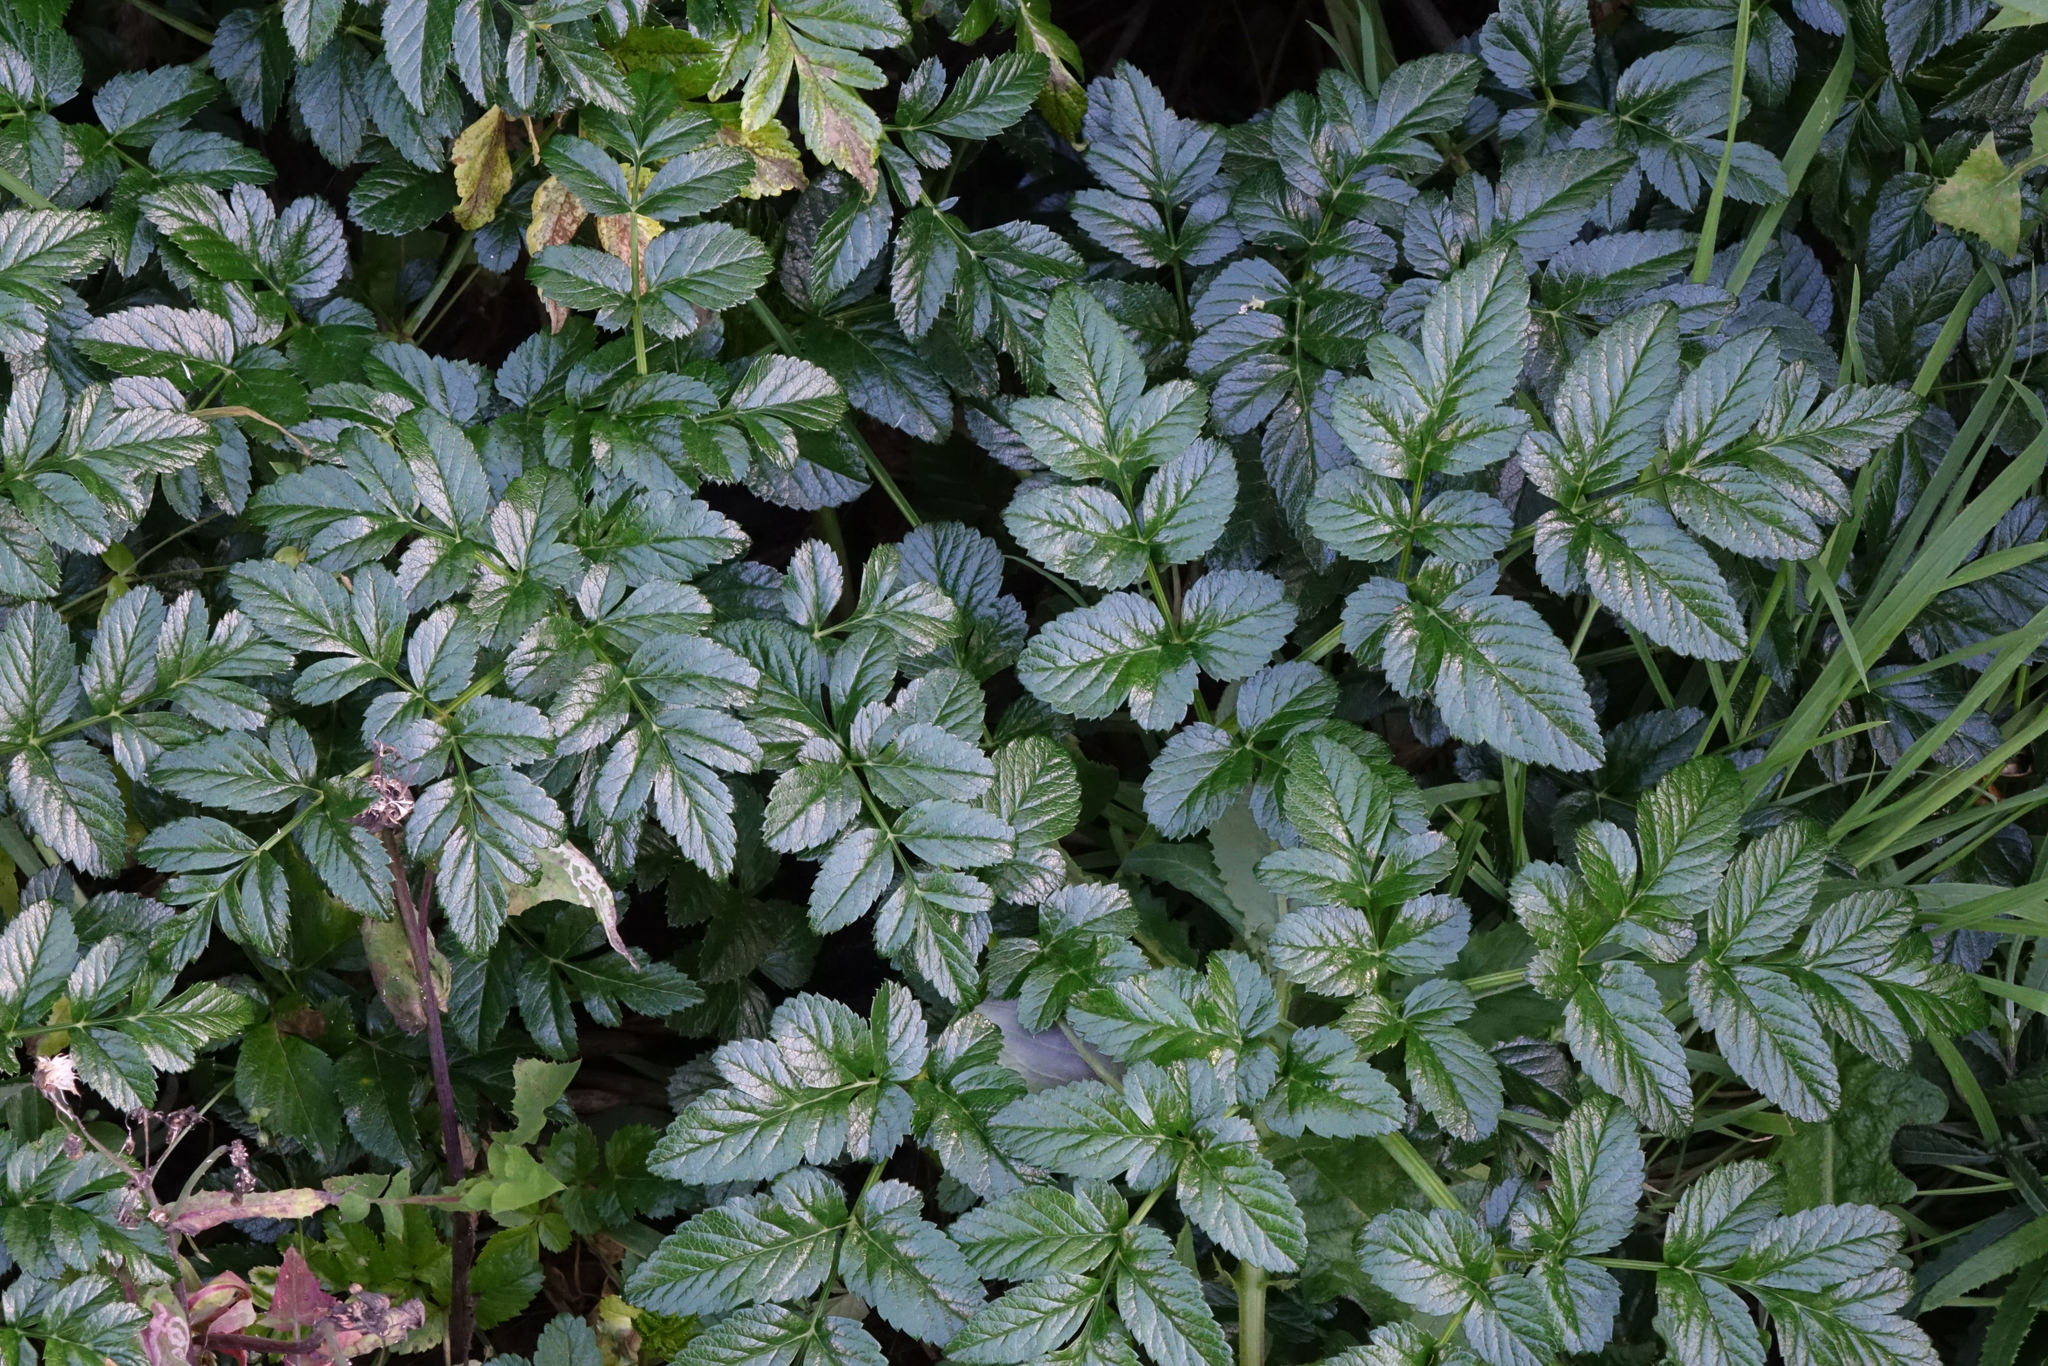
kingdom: Plantae
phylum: Tracheophyta
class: Magnoliopsida
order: Apiales
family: Apiaceae
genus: Angelica
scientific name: Angelica pachycarpa
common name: Portuguese angelica
